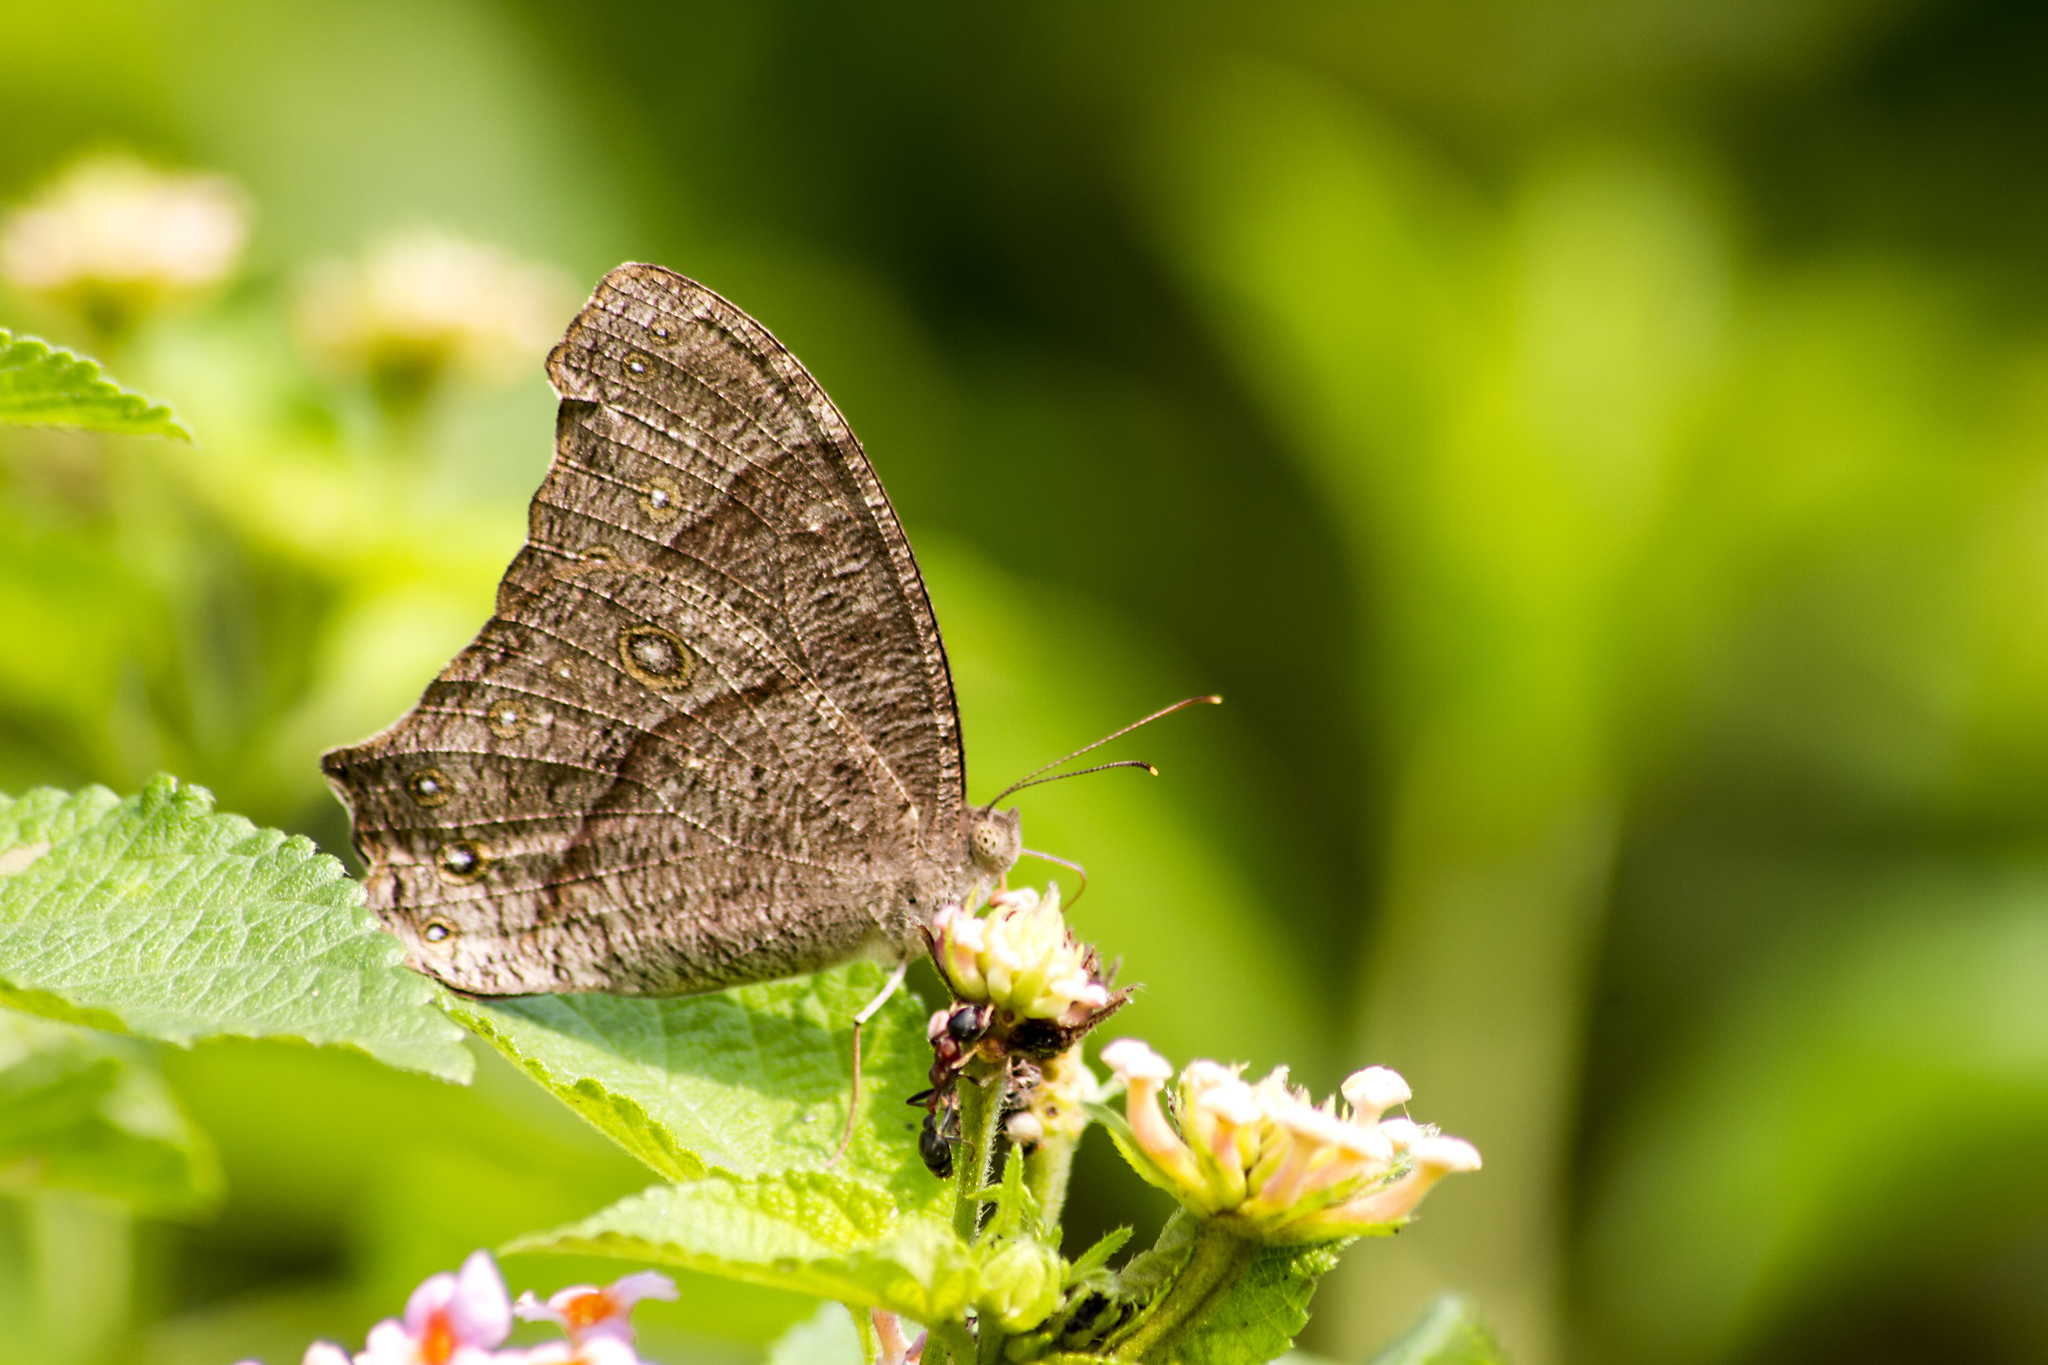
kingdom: Animalia
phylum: Arthropoda
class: Insecta
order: Lepidoptera
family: Nymphalidae
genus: Melanitis
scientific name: Melanitis leda
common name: Twilight brown
